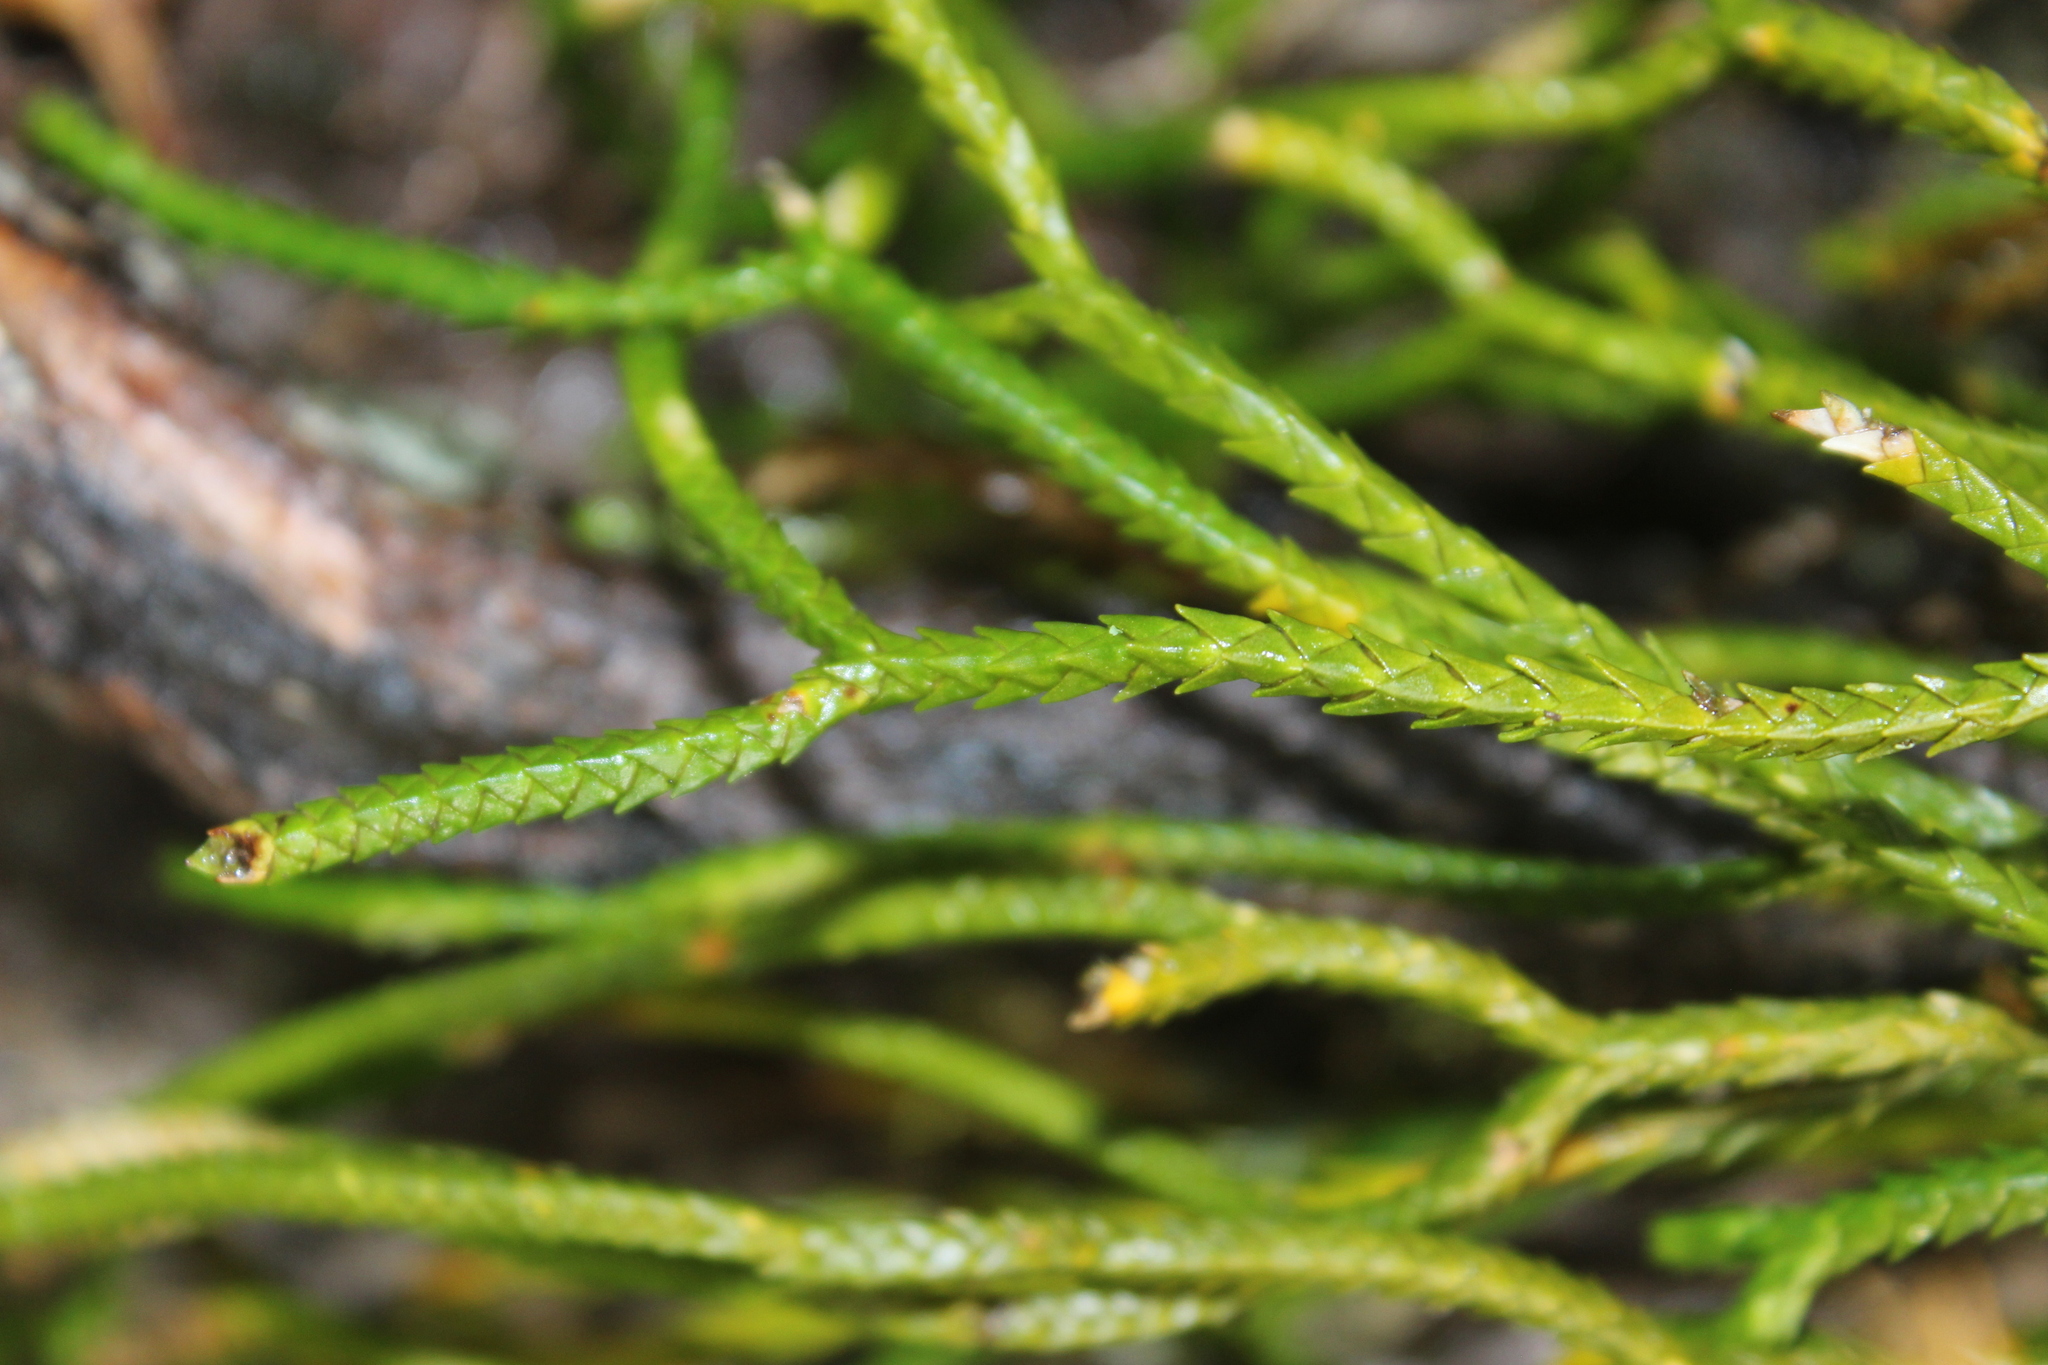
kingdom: Plantae
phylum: Tracheophyta
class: Lycopodiopsida
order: Lycopodiales
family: Lycopodiaceae
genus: Phlegmariurus
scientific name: Phlegmariurus billardierei
